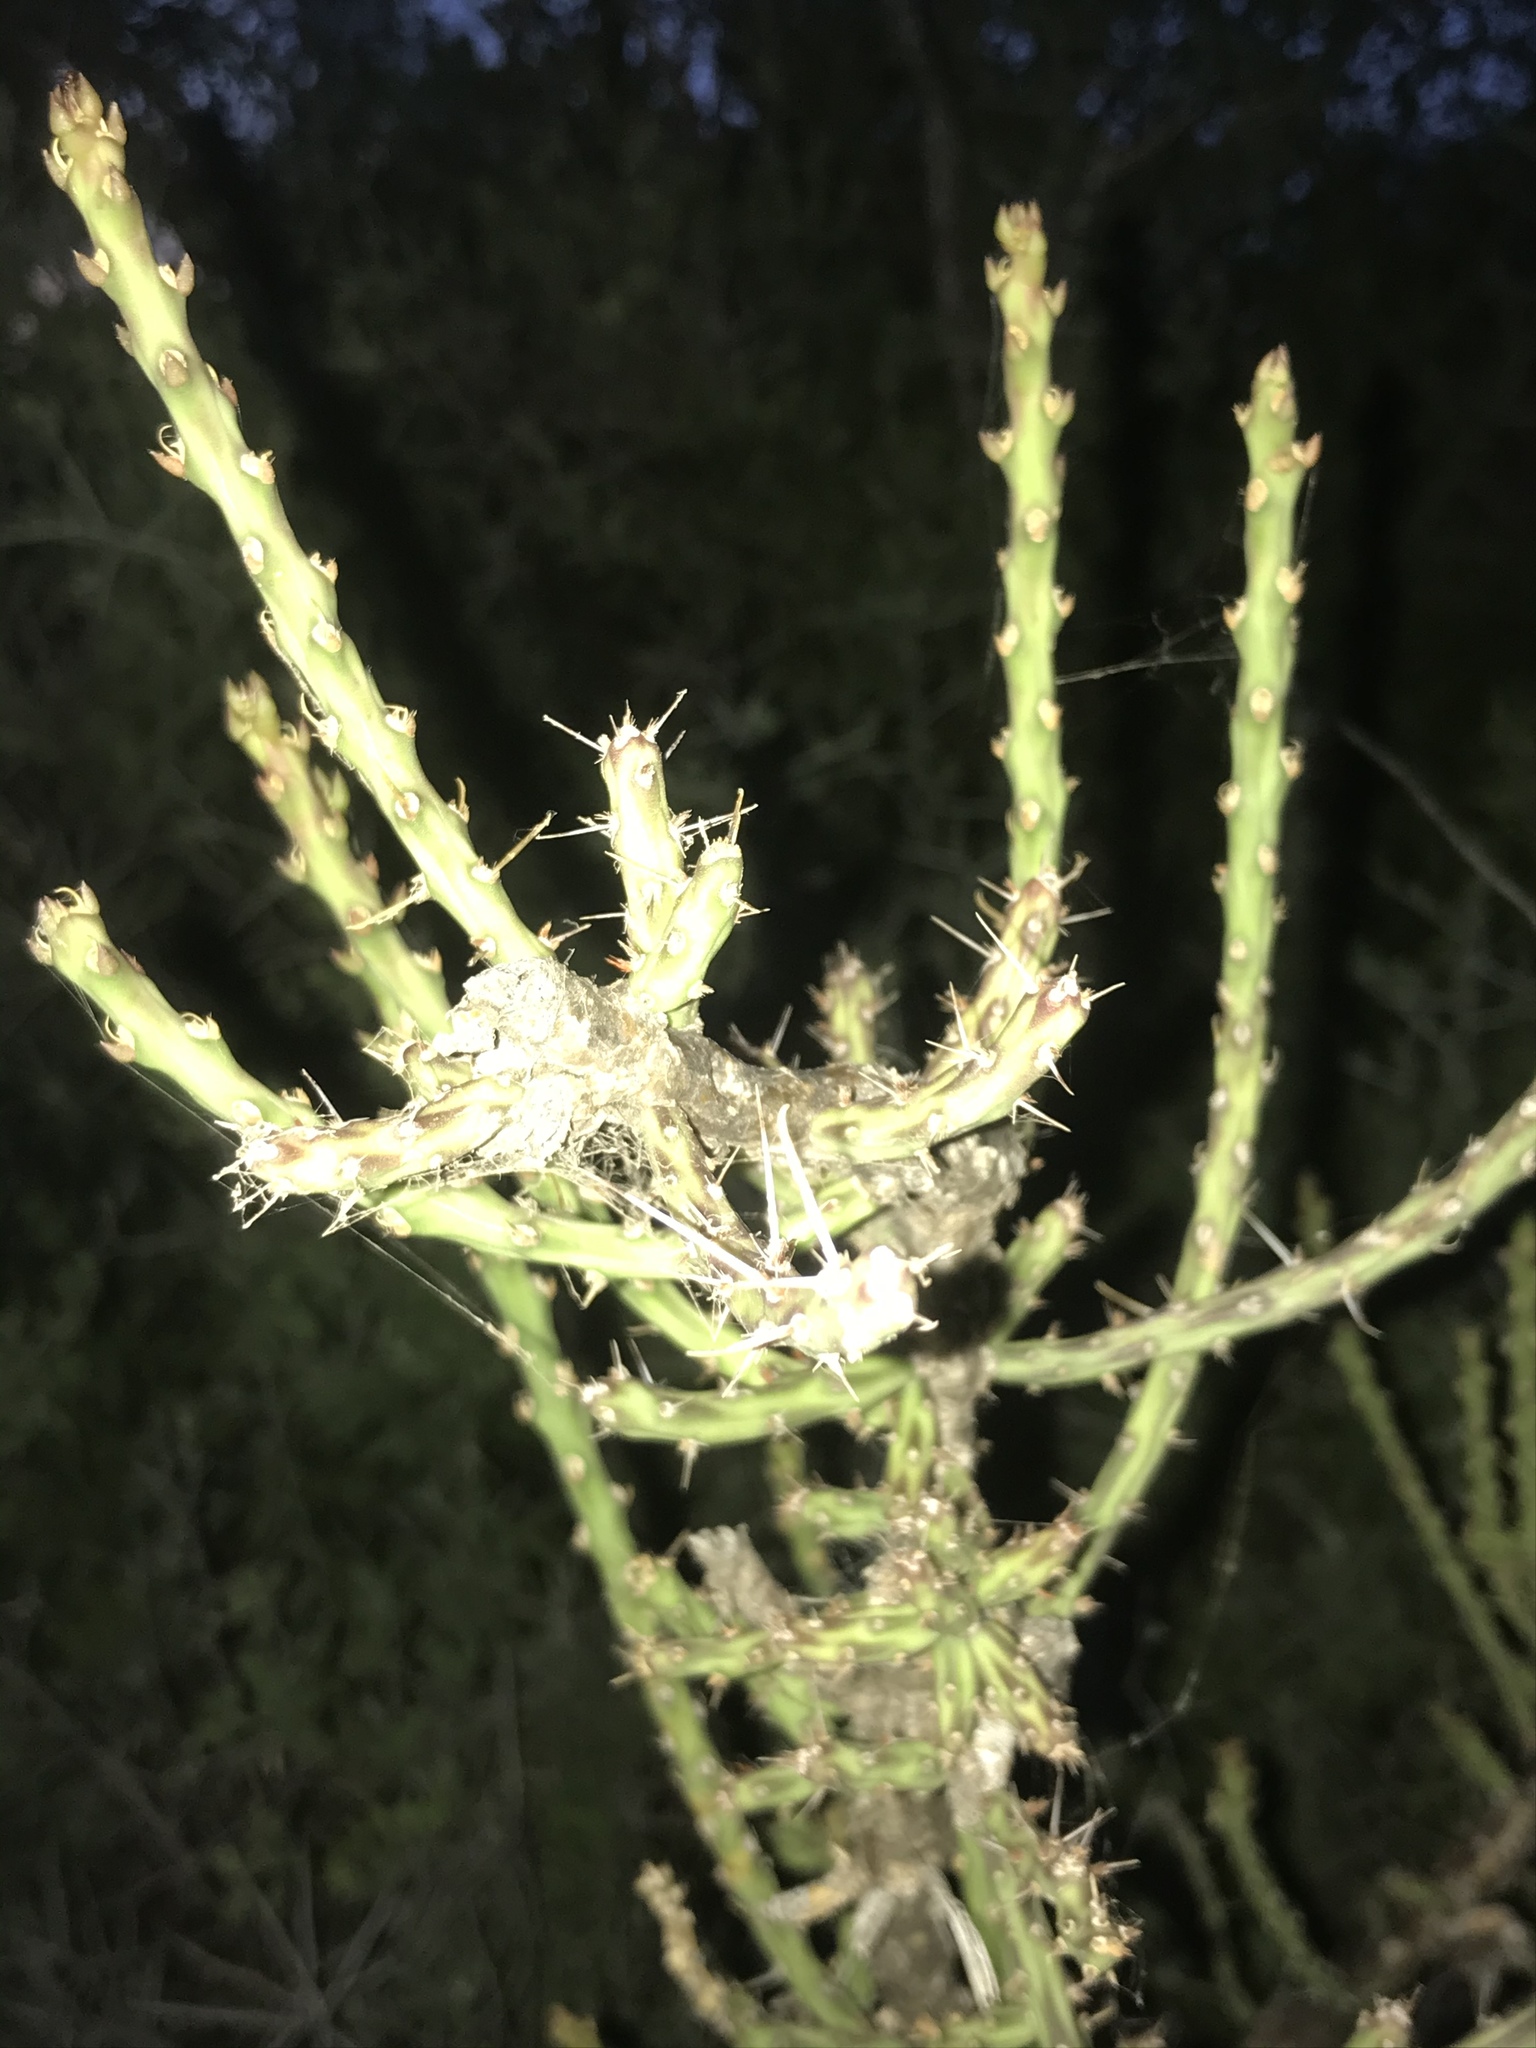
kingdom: Plantae
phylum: Tracheophyta
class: Magnoliopsida
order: Caryophyllales
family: Cactaceae
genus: Cylindropuntia
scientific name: Cylindropuntia leptocaulis
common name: Christmas cactus
